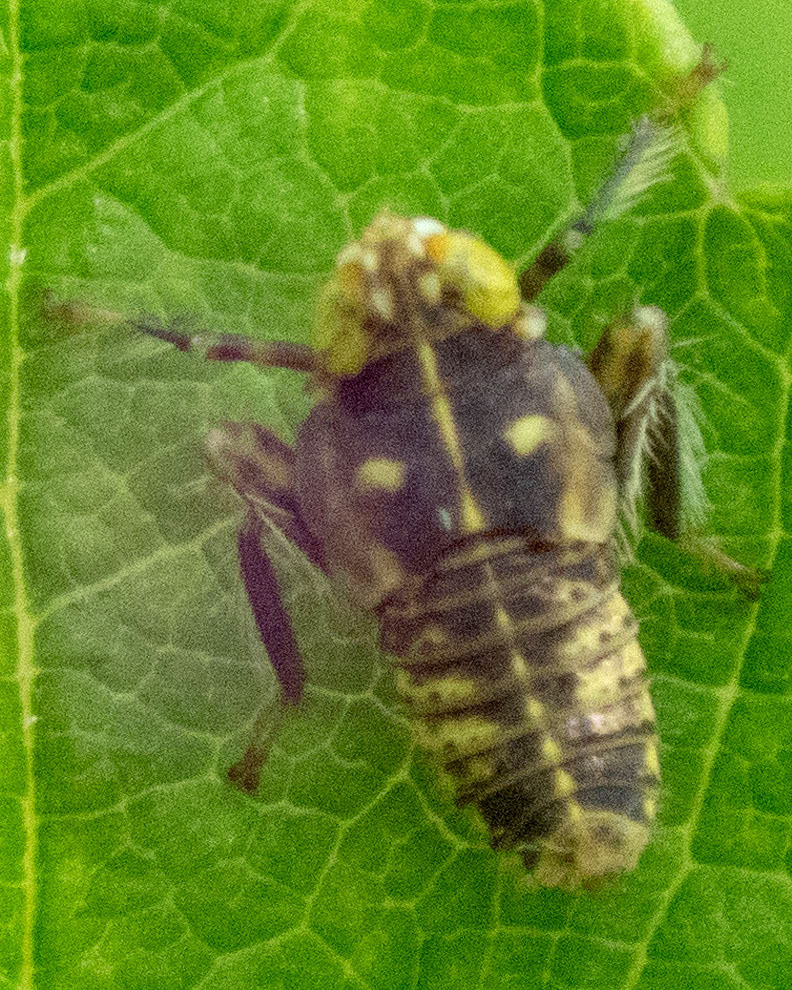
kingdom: Animalia
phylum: Arthropoda
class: Insecta
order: Hemiptera
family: Cicadellidae
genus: Jikradia
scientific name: Jikradia olitoria
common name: Coppery leafhopper
